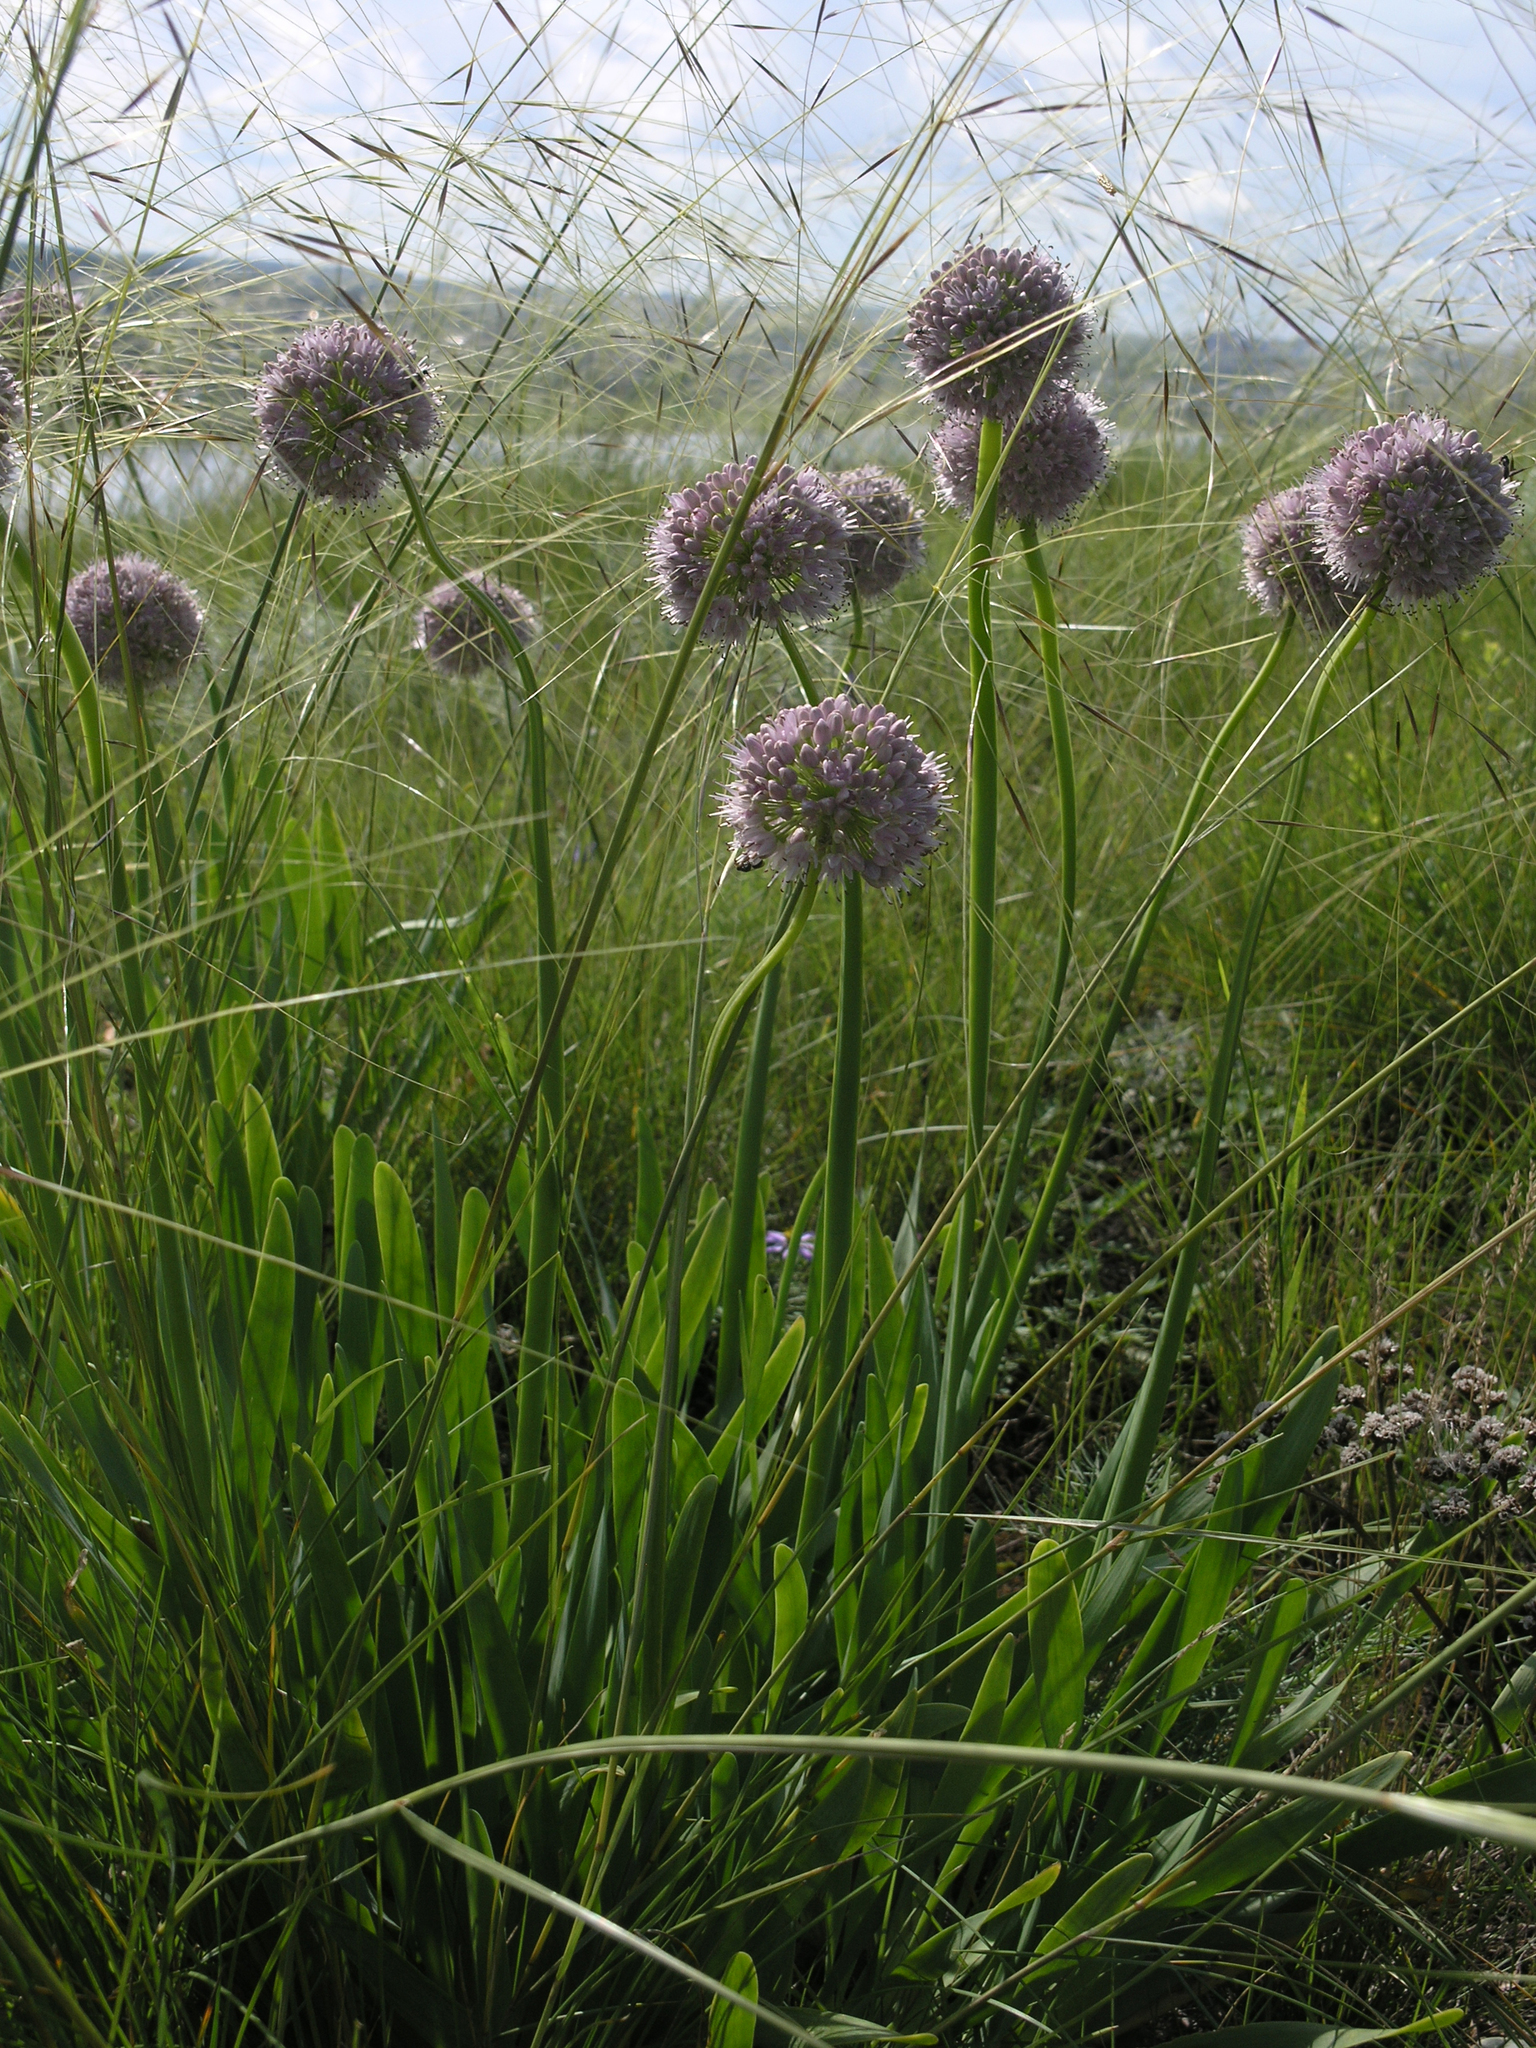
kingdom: Plantae
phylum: Tracheophyta
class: Liliopsida
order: Asparagales
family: Amaryllidaceae
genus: Allium
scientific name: Allium nutans
